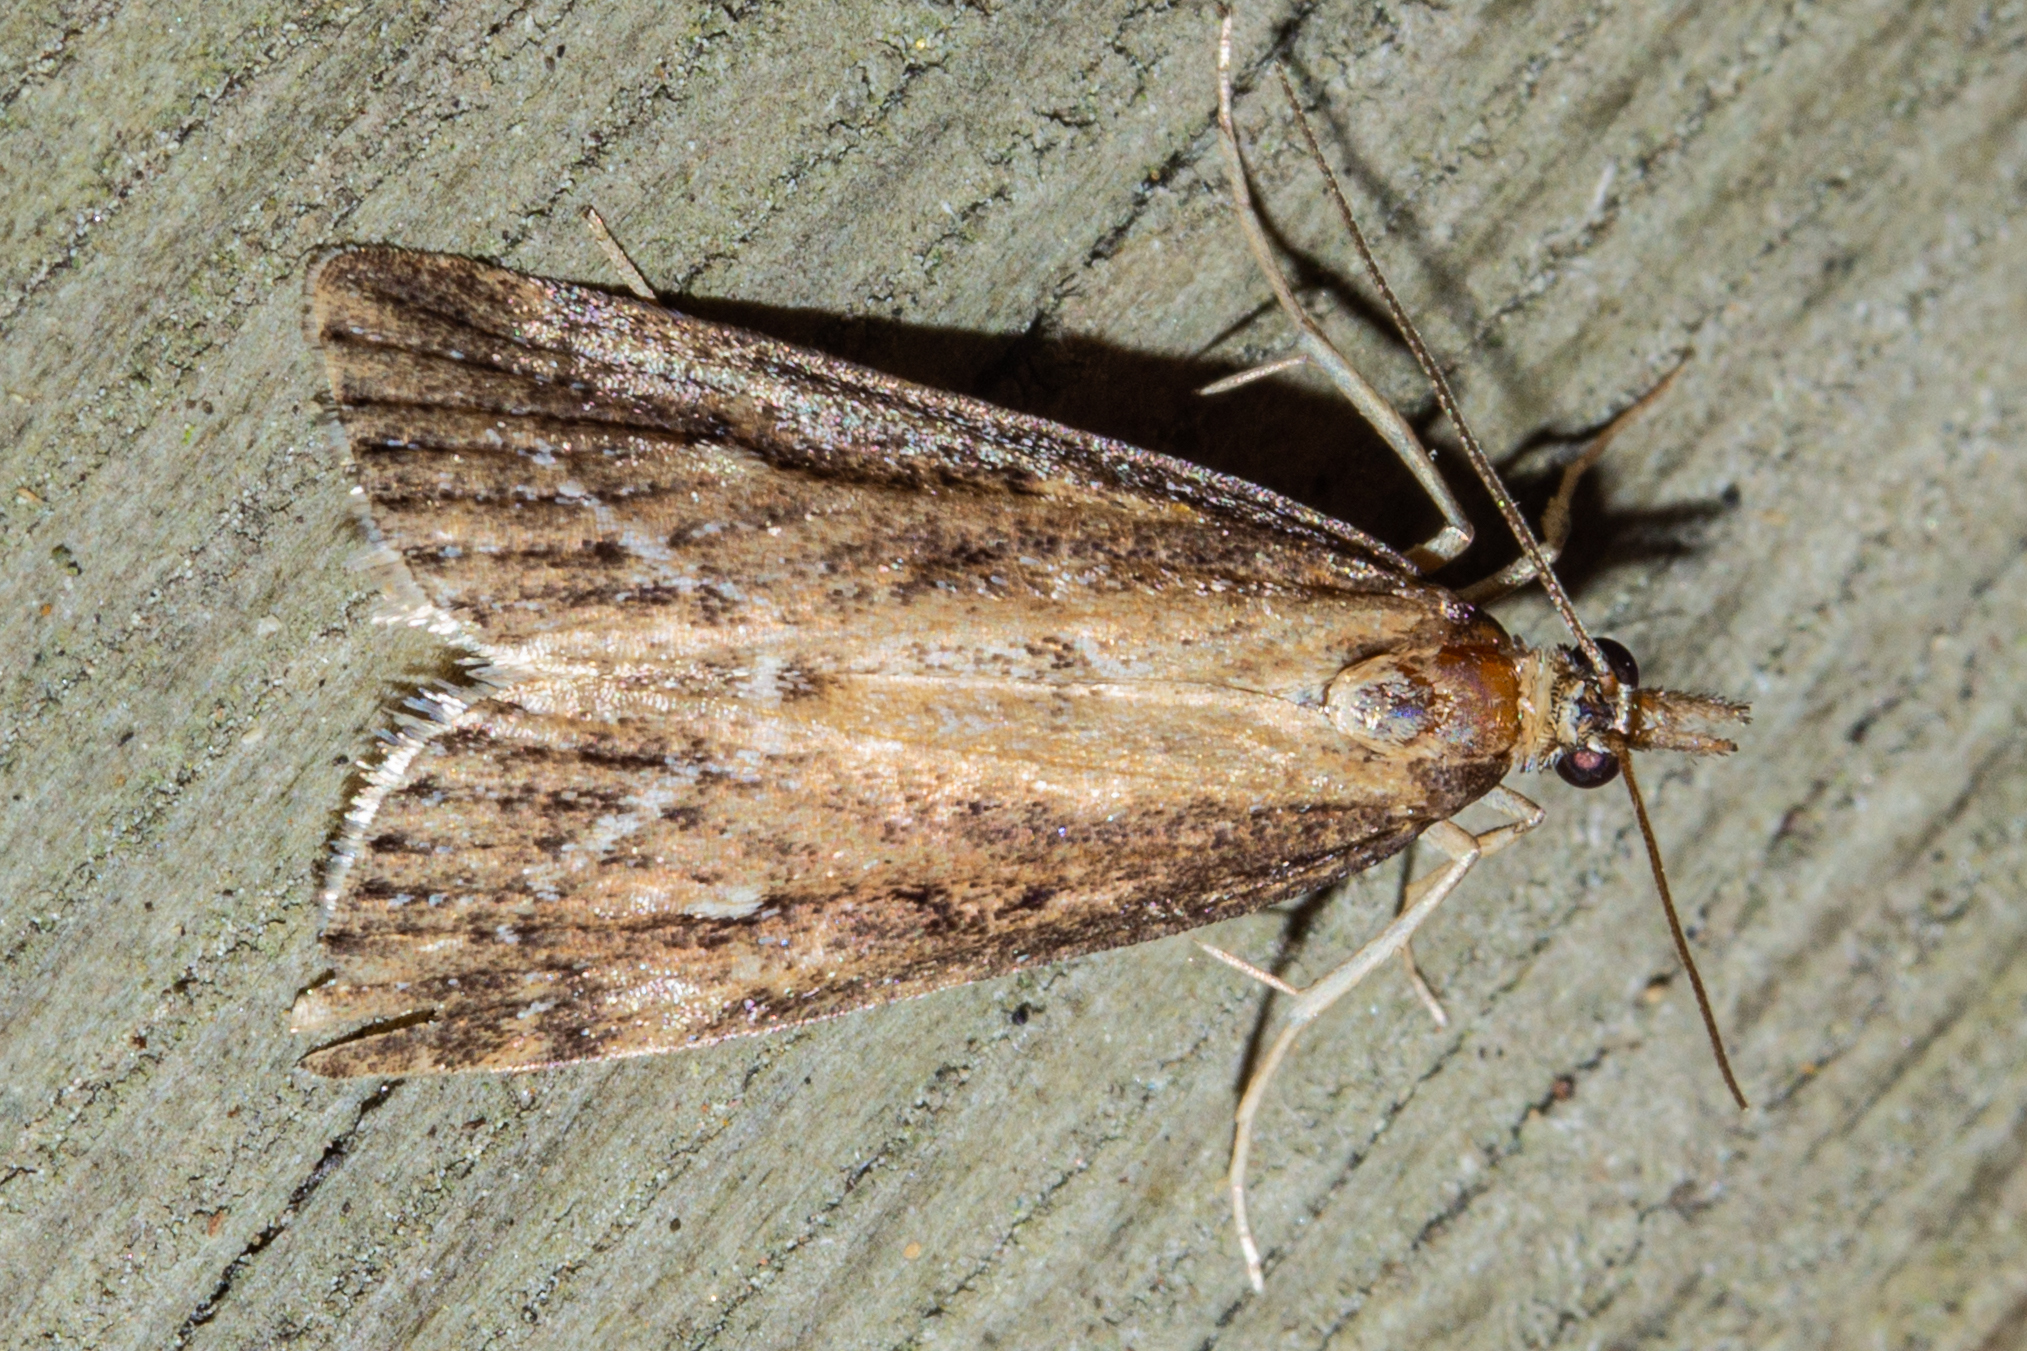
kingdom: Animalia
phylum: Arthropoda
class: Insecta
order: Lepidoptera
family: Crambidae
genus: Eudonia
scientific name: Eudonia octophora
